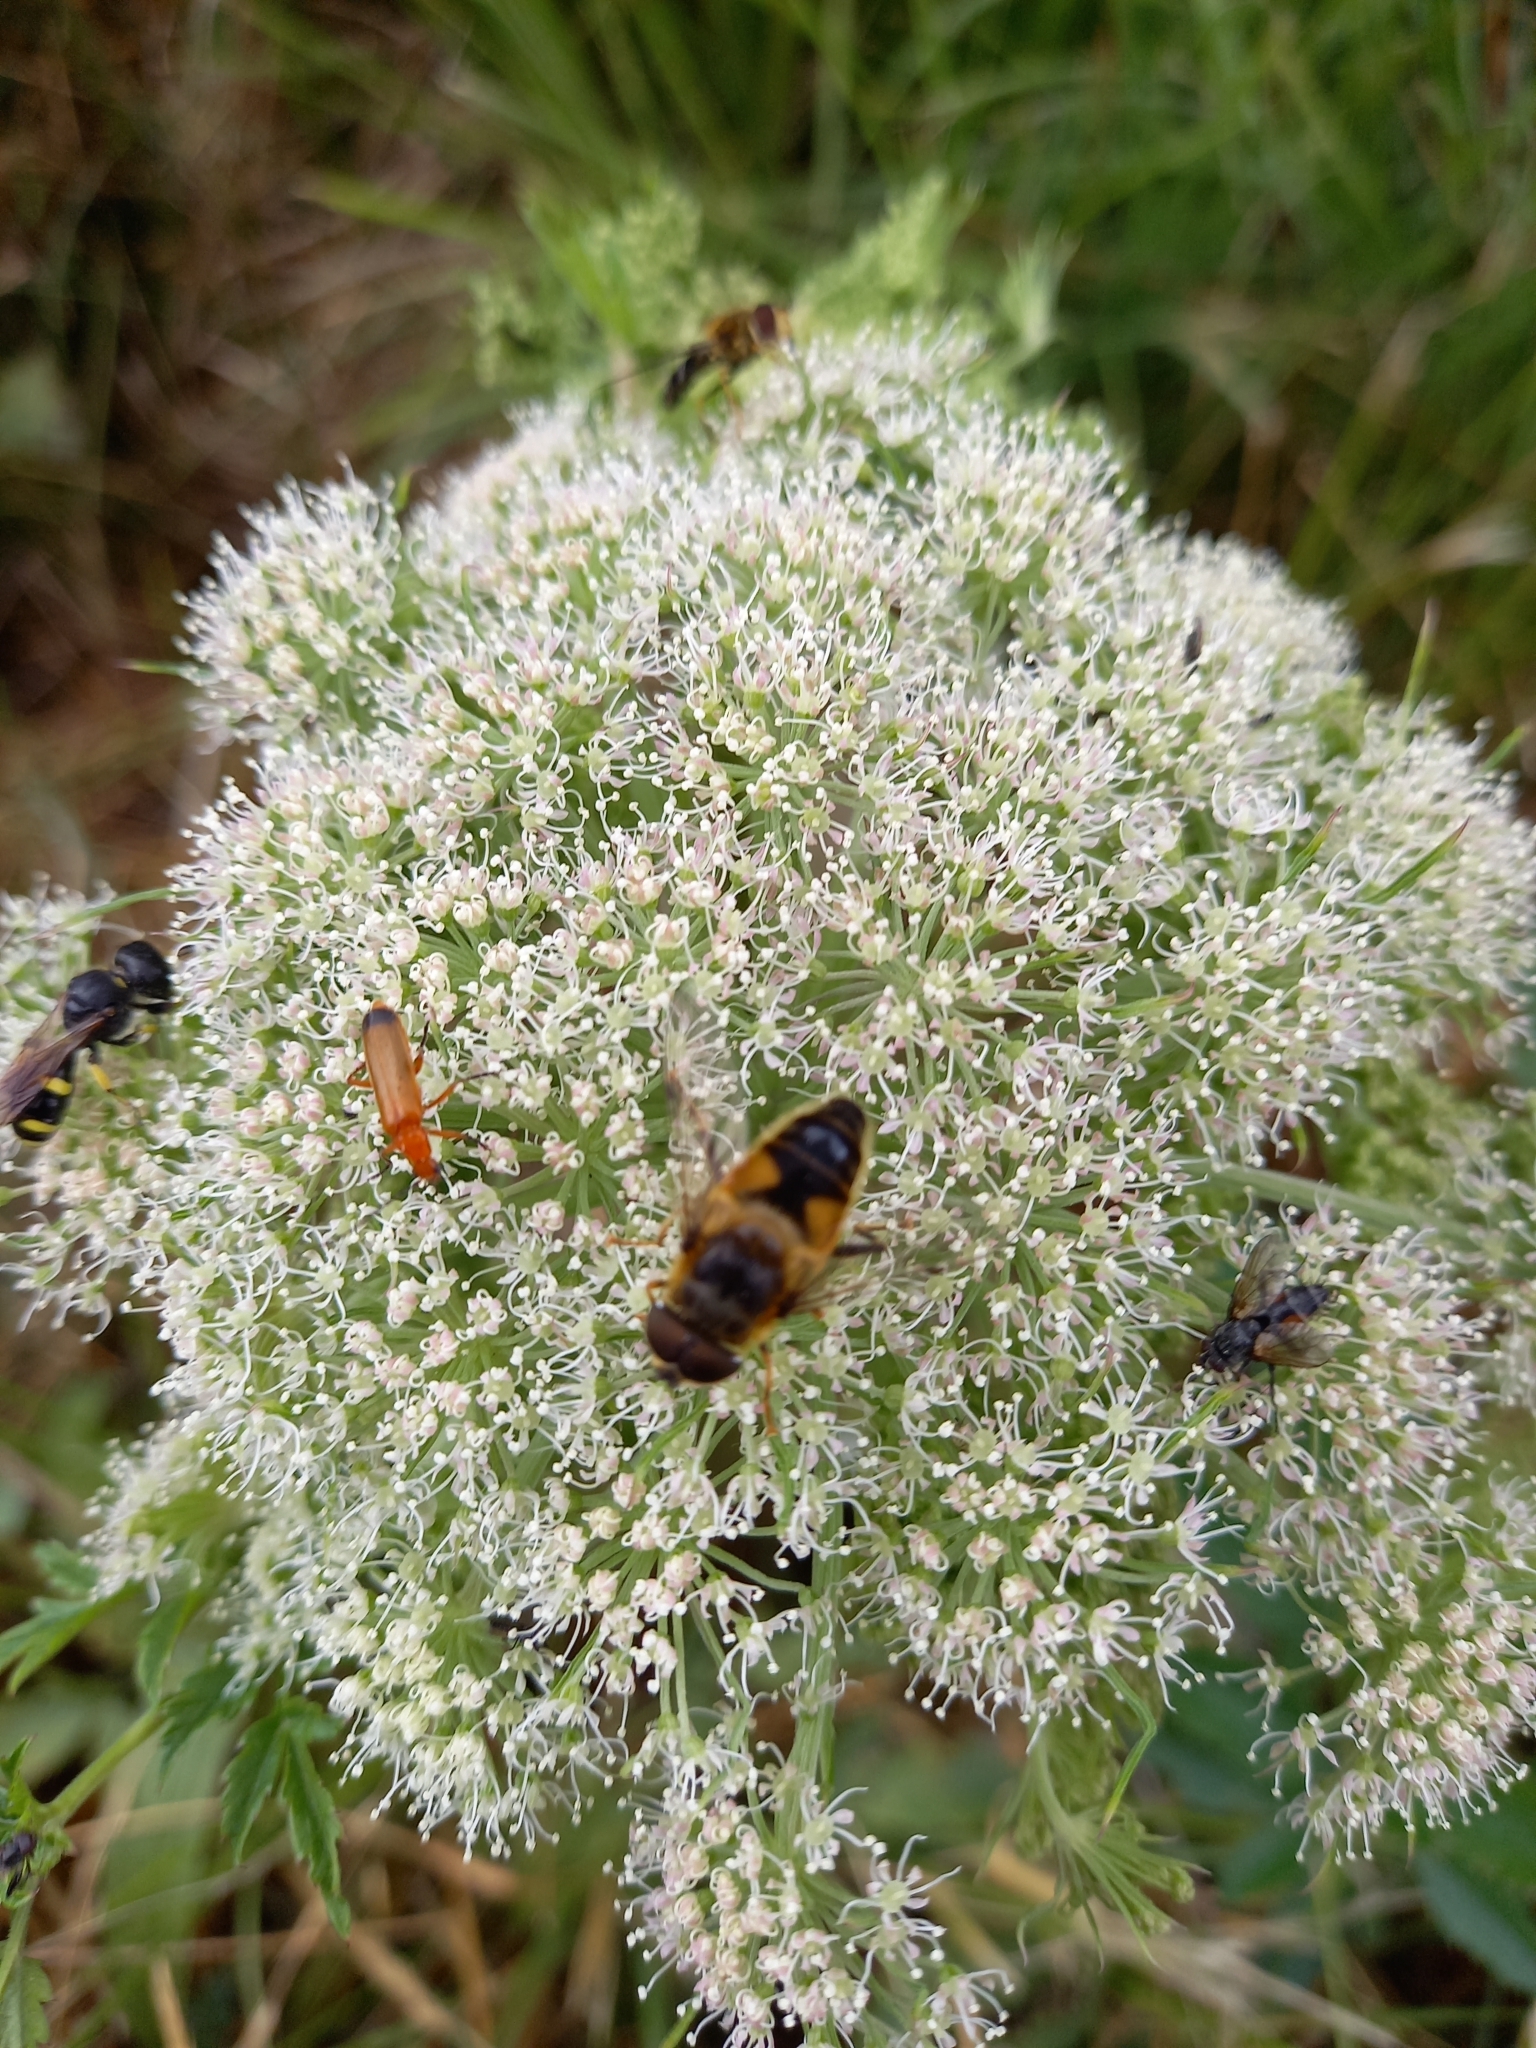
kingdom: Animalia
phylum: Arthropoda
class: Insecta
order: Diptera
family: Syrphidae
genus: Eristalis
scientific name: Eristalis pertinax
